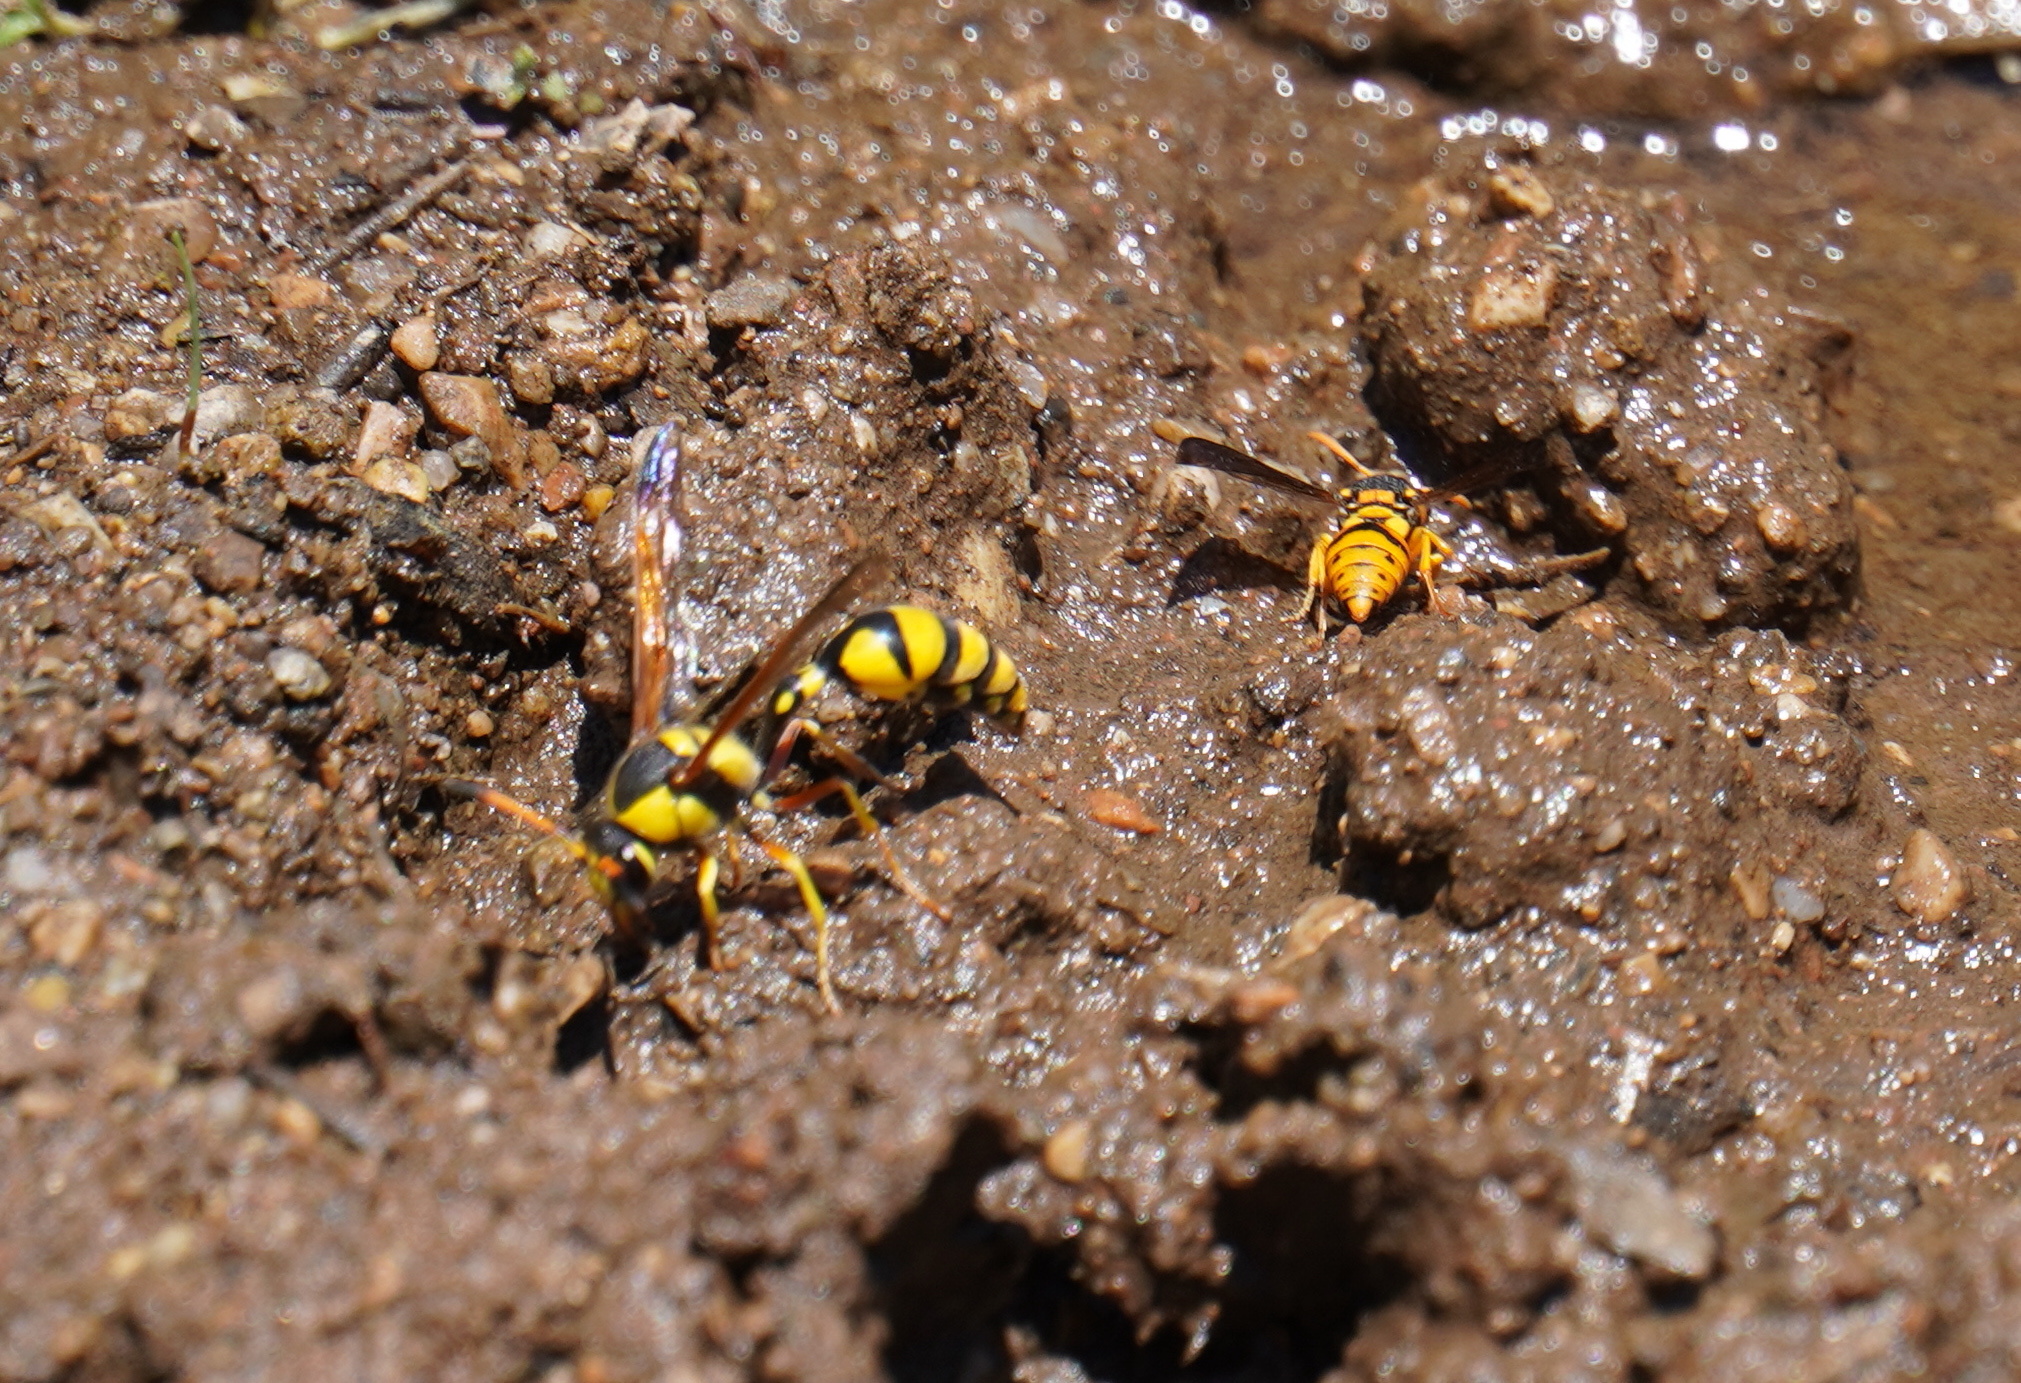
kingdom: Animalia
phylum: Arthropoda
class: Insecta
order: Hymenoptera
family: Eumenidae
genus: Delta
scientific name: Delta lepeleterii
